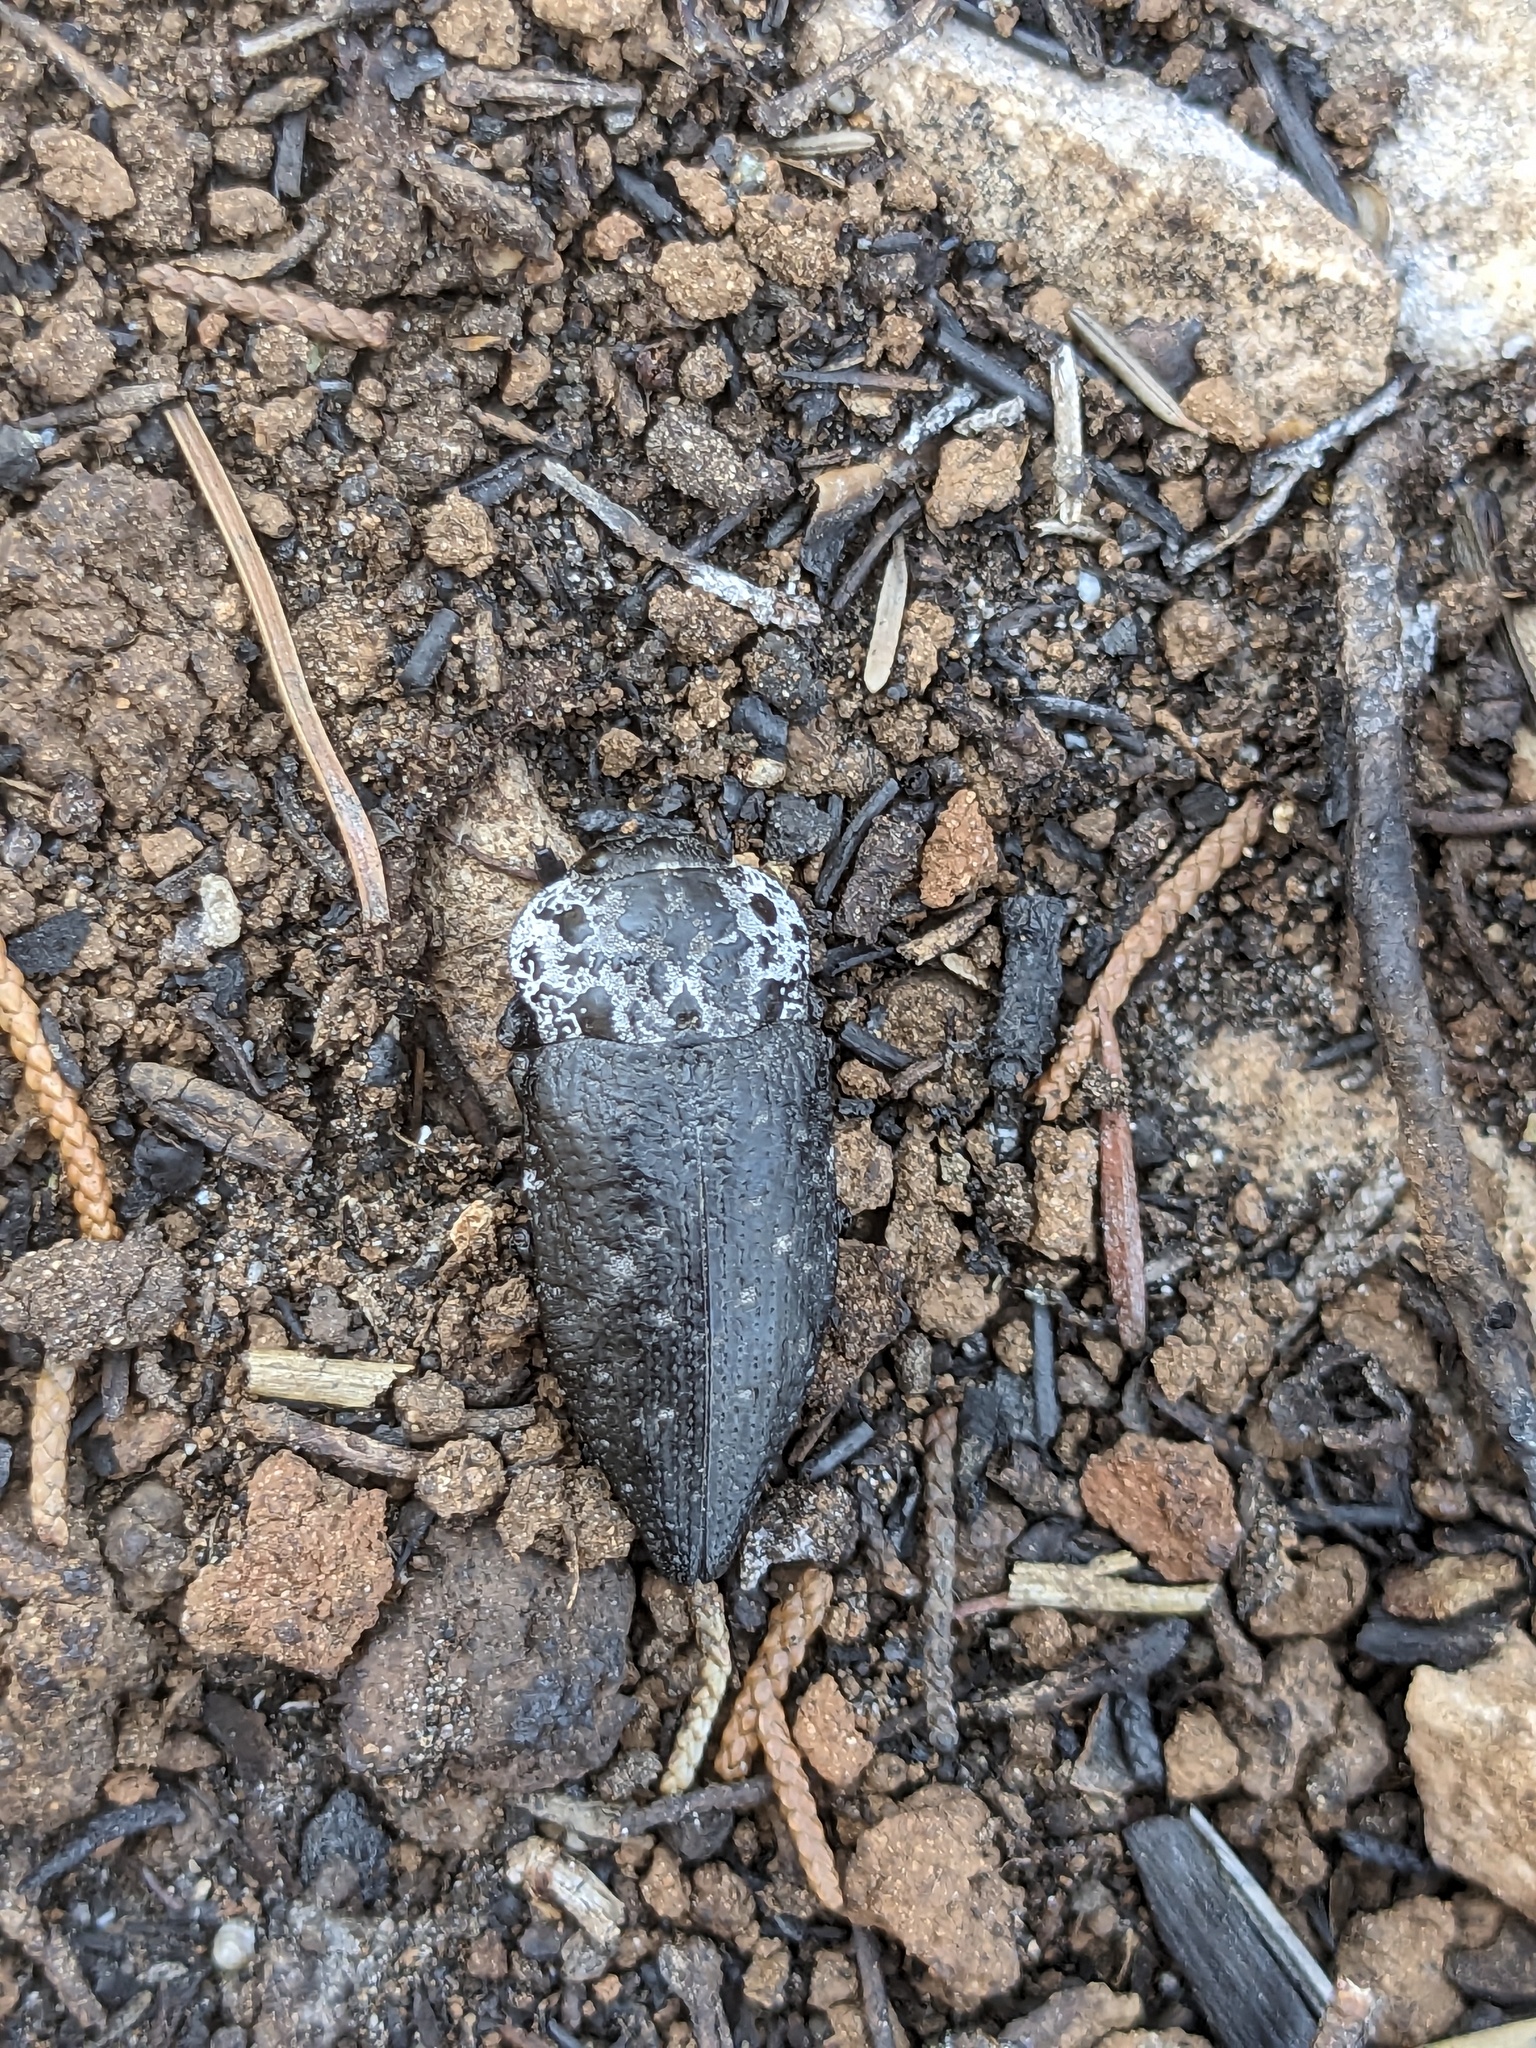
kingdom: Animalia
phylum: Arthropoda
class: Insecta
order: Coleoptera
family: Buprestidae
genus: Capnodis
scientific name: Capnodis tenebrionis
